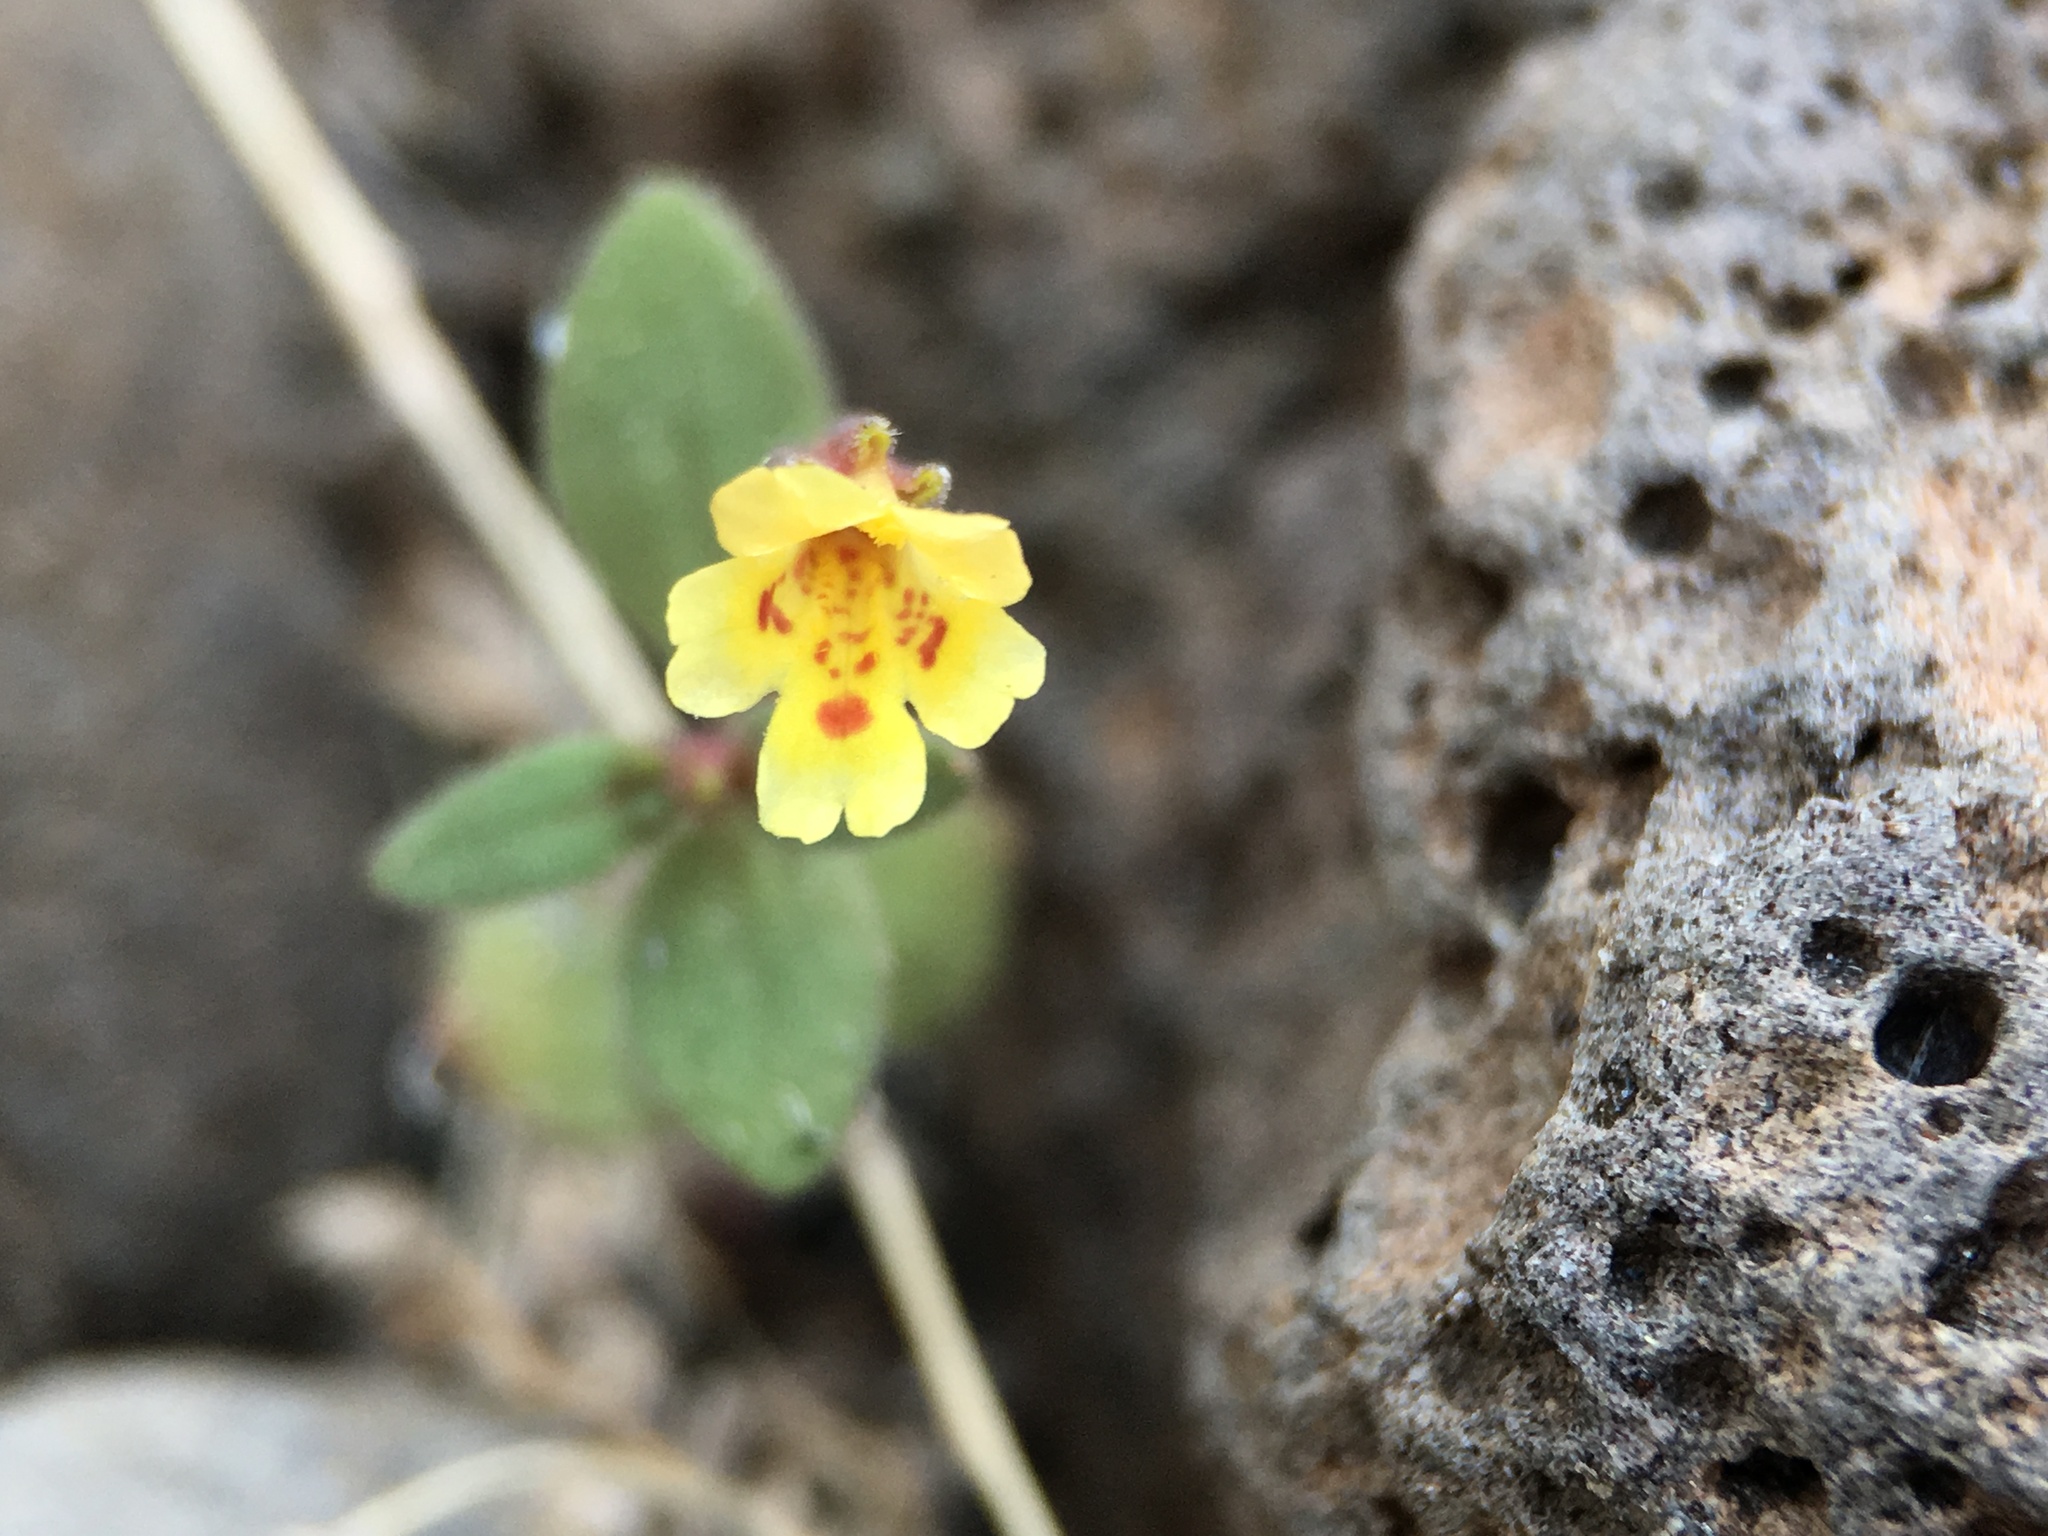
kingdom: Plantae
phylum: Tracheophyta
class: Magnoliopsida
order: Lamiales
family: Phrymaceae
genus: Erythranthe
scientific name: Erythranthe rubella
